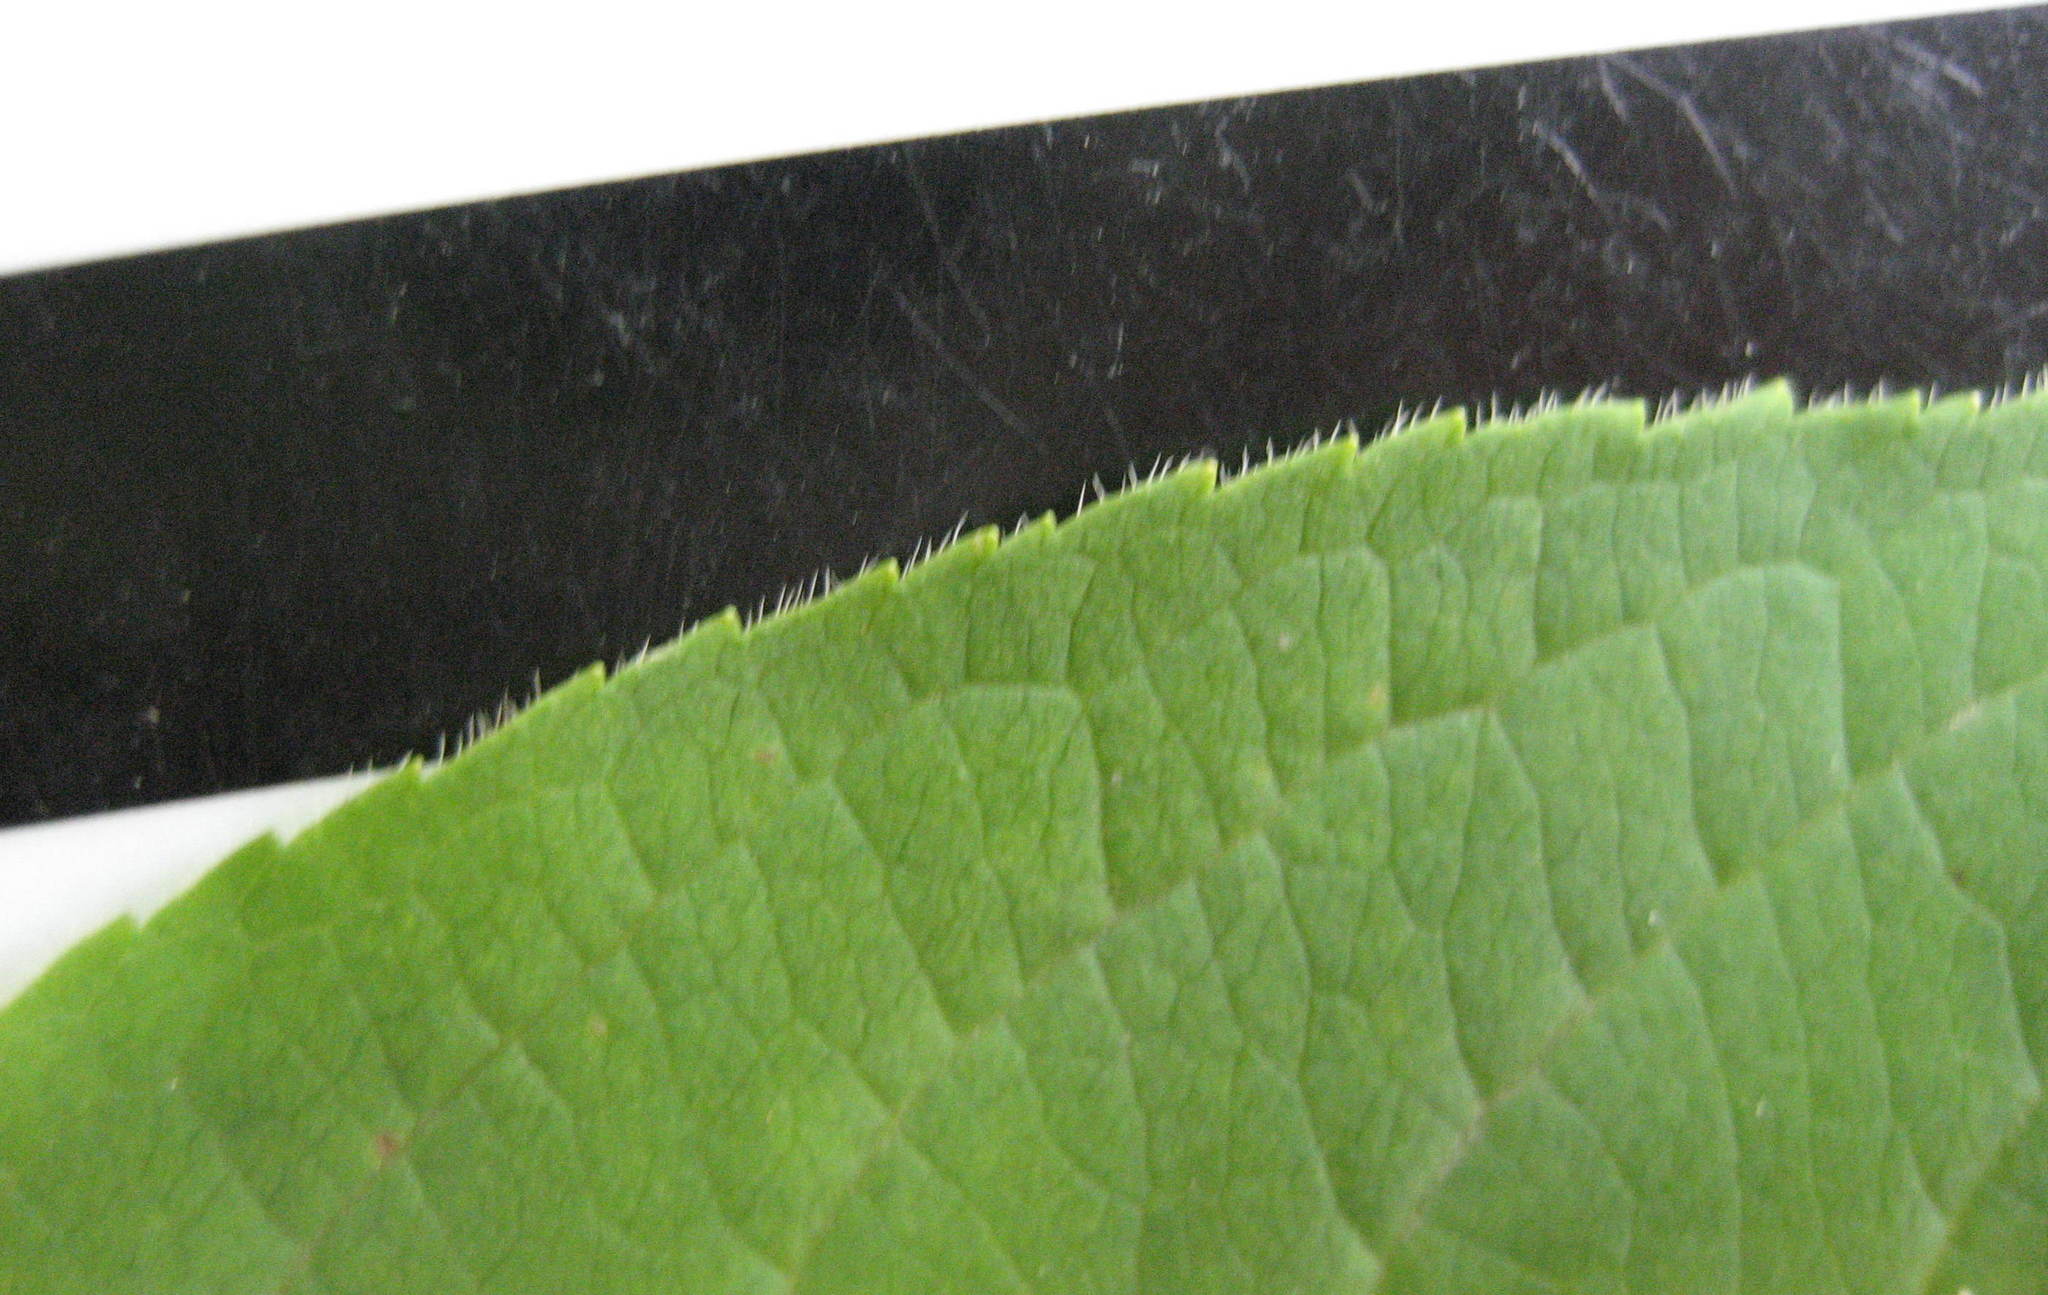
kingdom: Plantae
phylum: Tracheophyta
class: Magnoliopsida
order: Dipsacales
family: Caprifoliaceae
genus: Diervilla
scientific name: Diervilla lonicera
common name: Bush-honeysuckle
